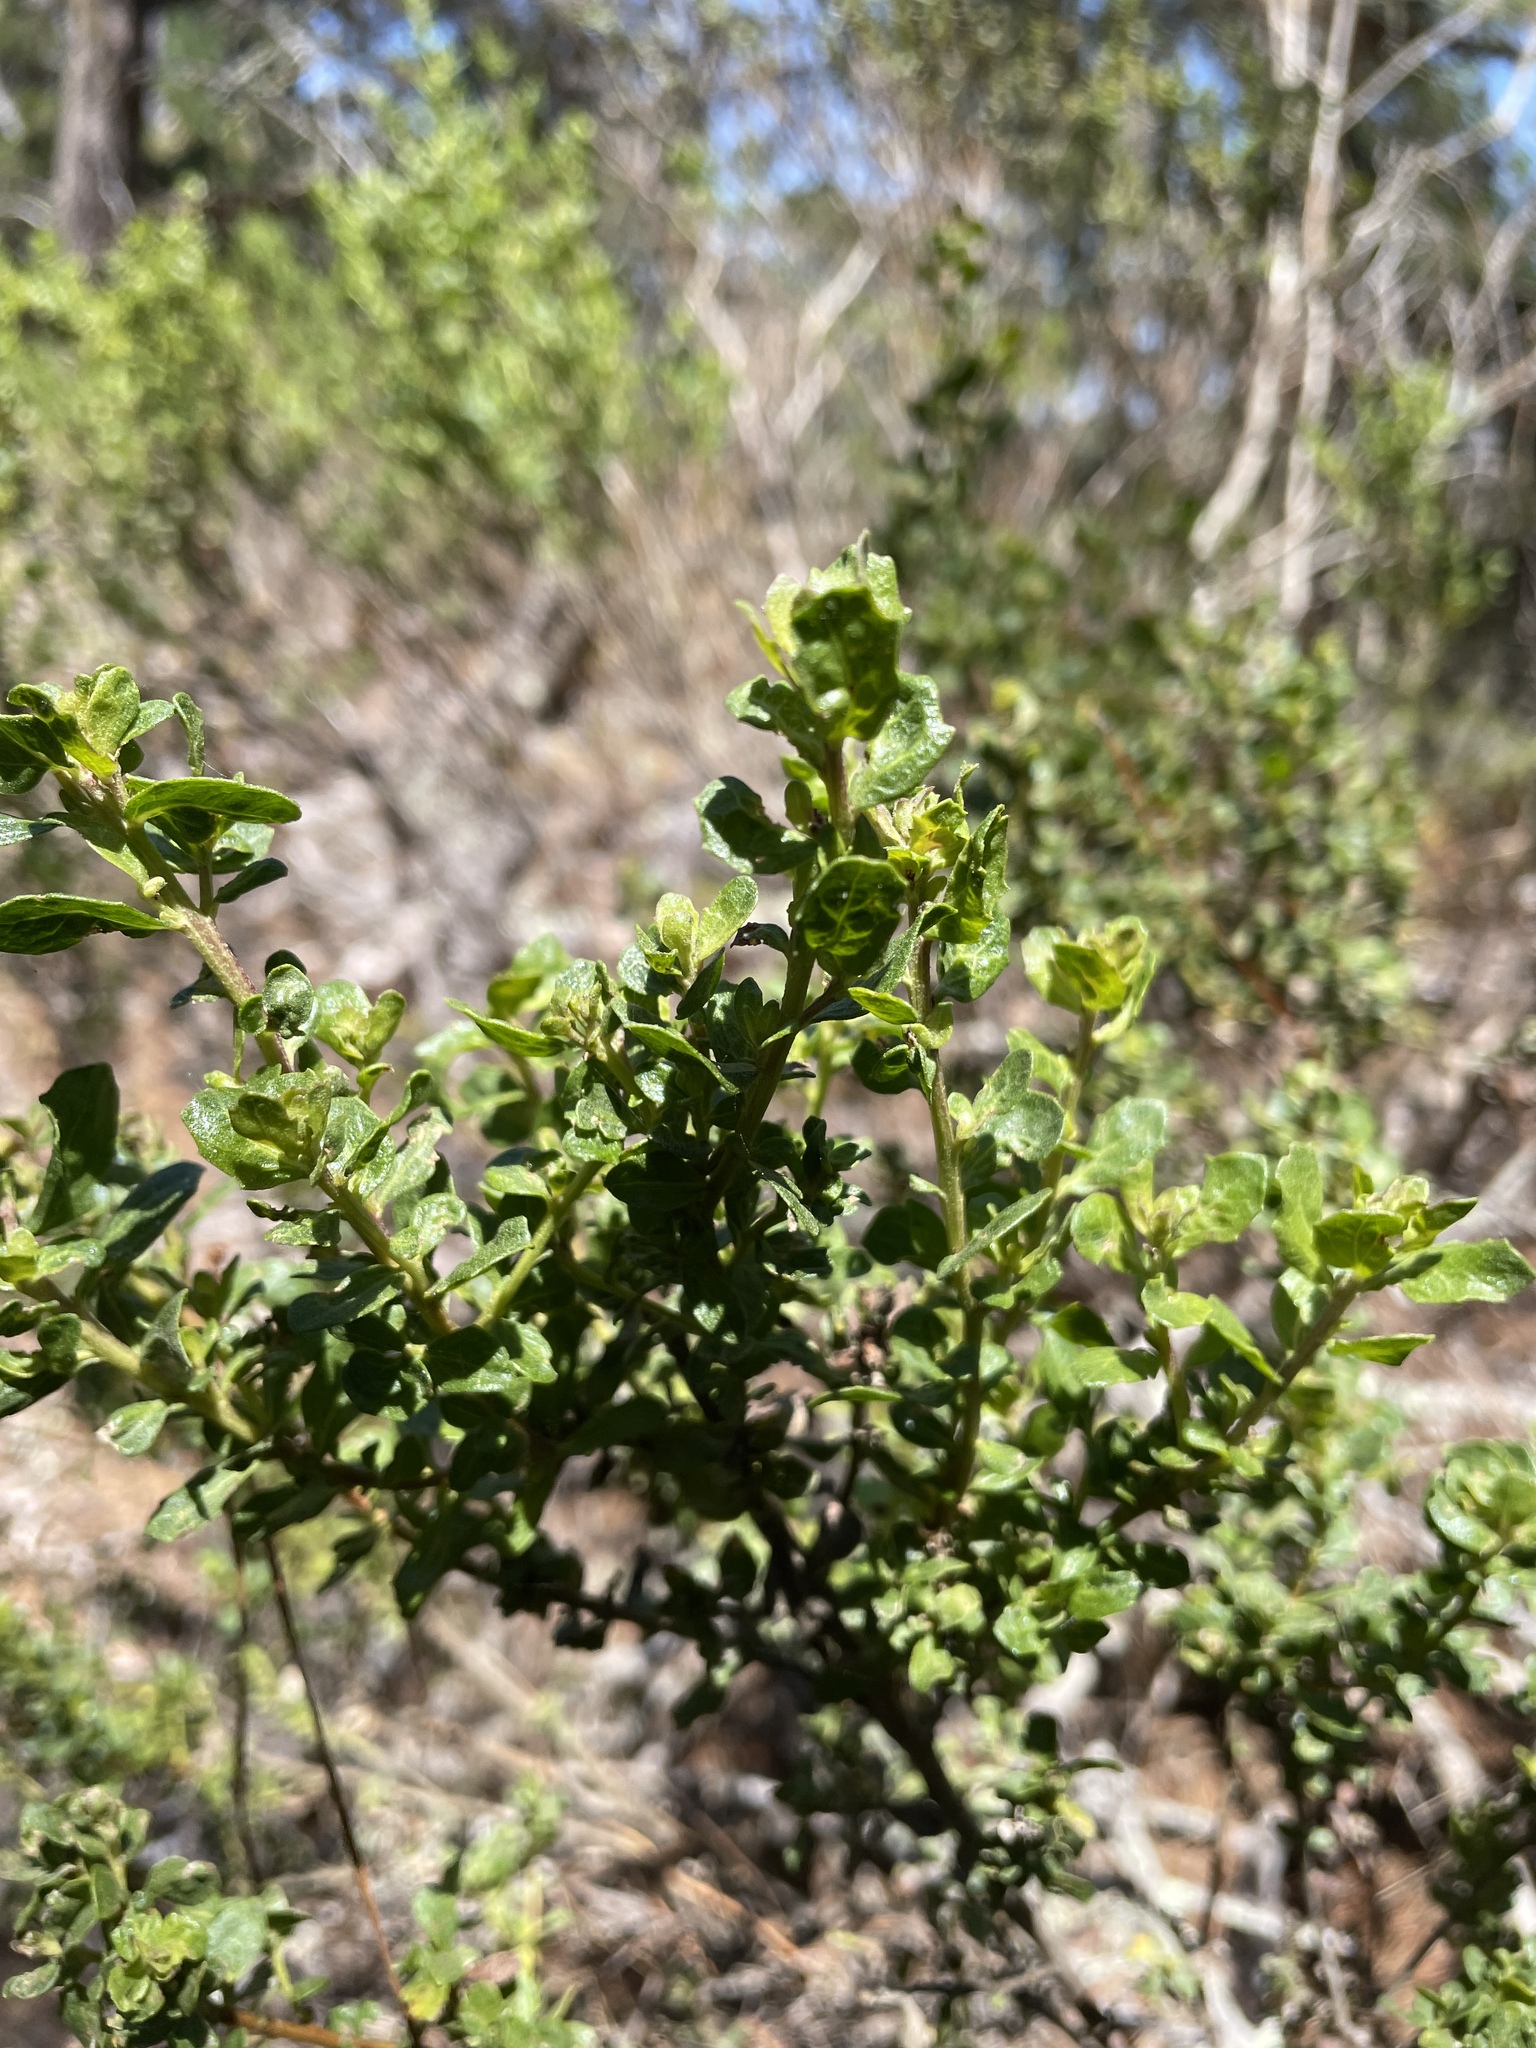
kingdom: Plantae
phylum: Tracheophyta
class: Magnoliopsida
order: Asterales
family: Asteraceae
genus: Baccharis
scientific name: Baccharis pilularis
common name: Coyotebrush
